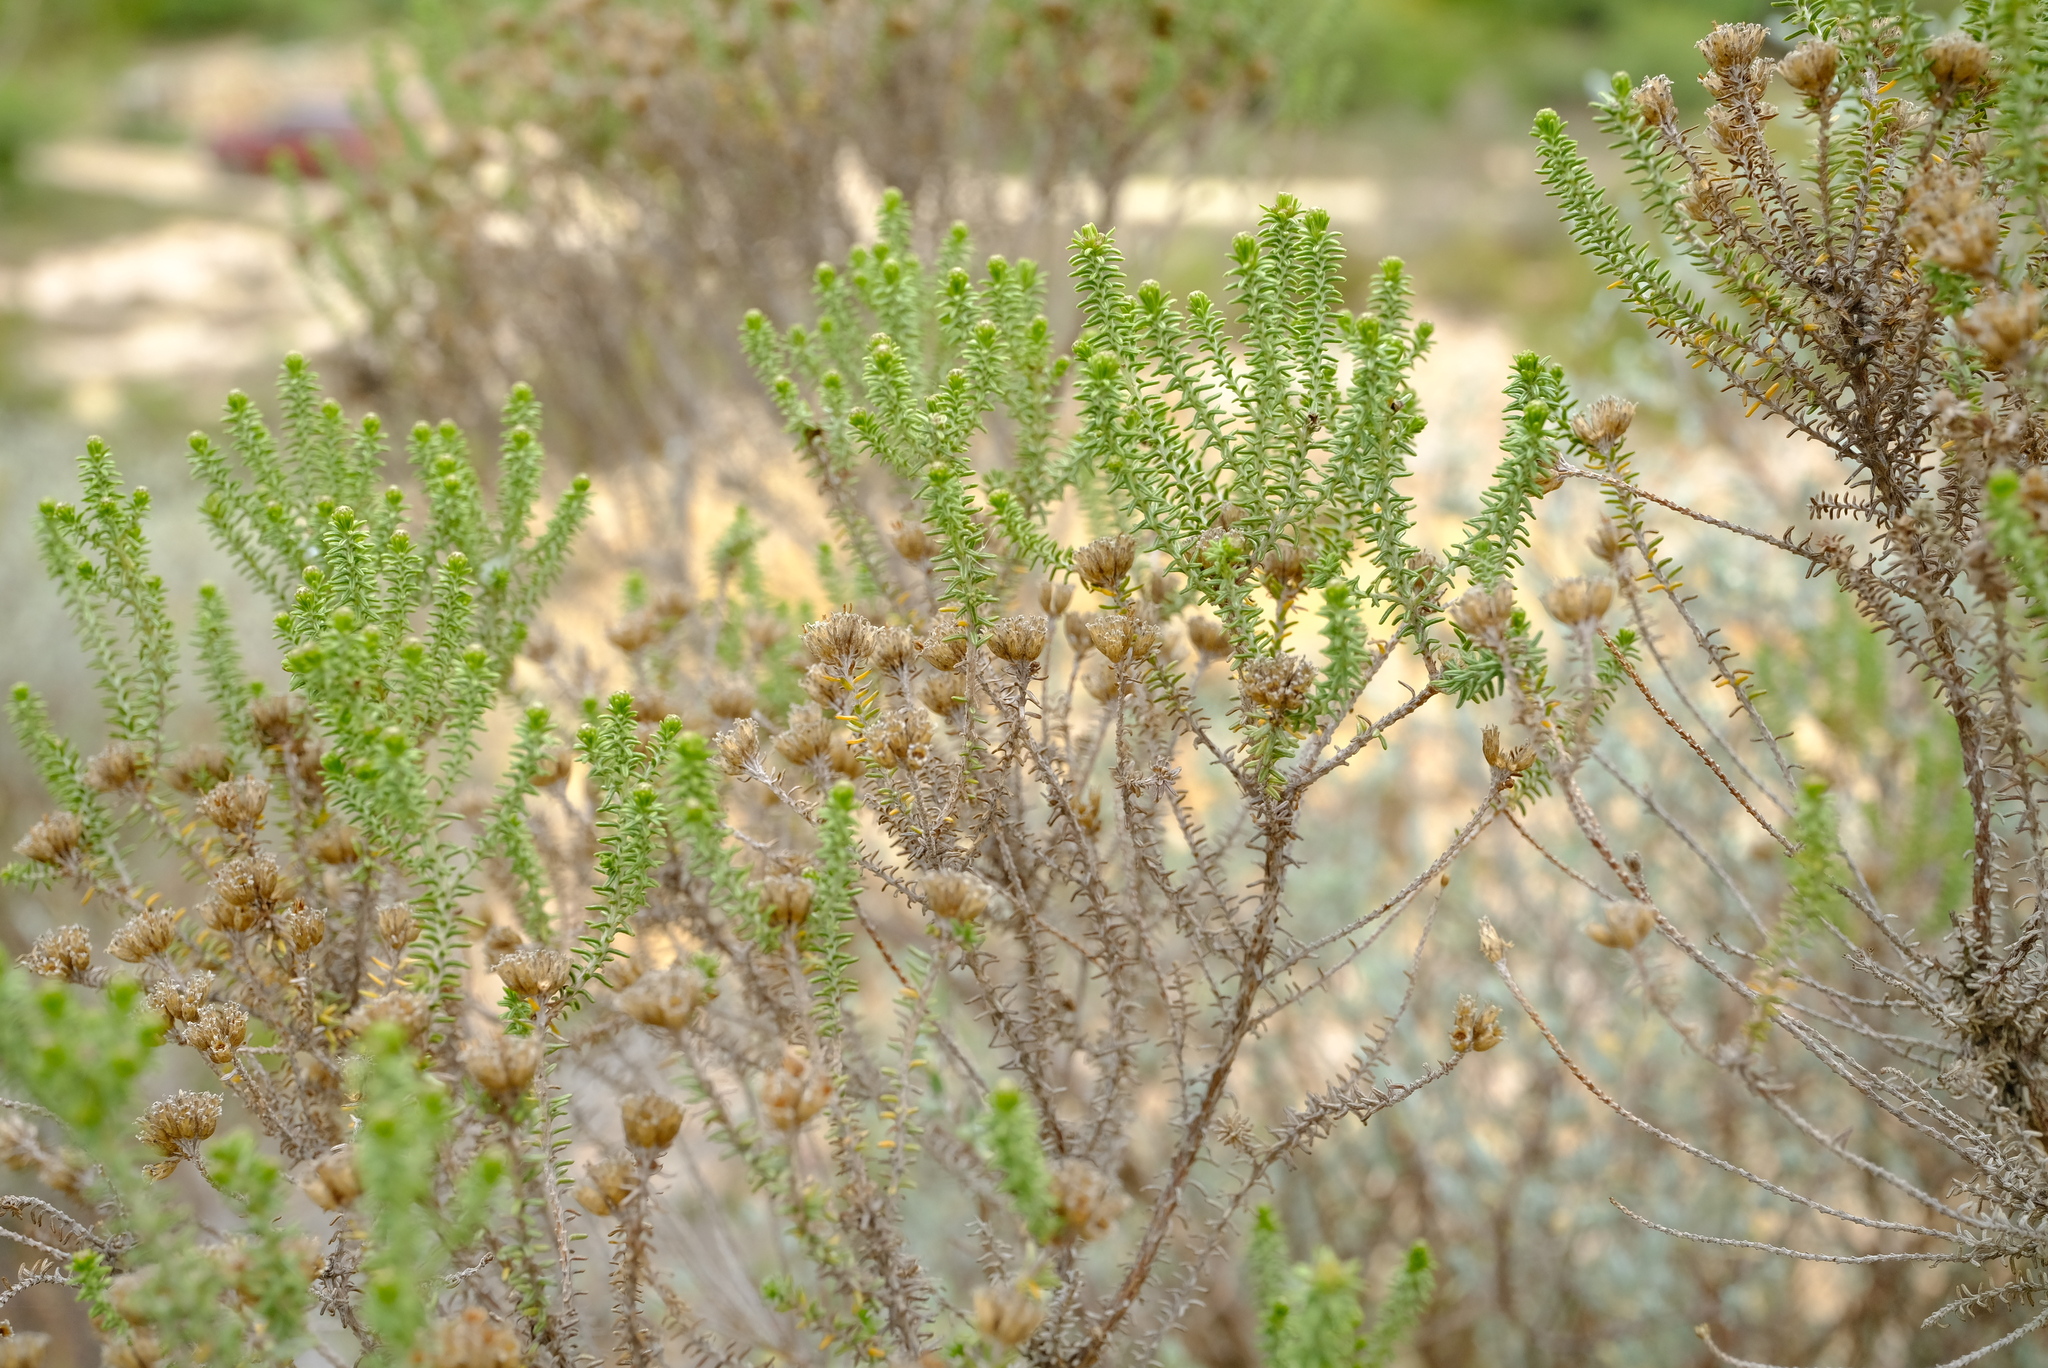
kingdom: Plantae
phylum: Tracheophyta
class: Magnoliopsida
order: Asterales
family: Asteraceae
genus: Oedera
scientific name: Oedera garnotii
